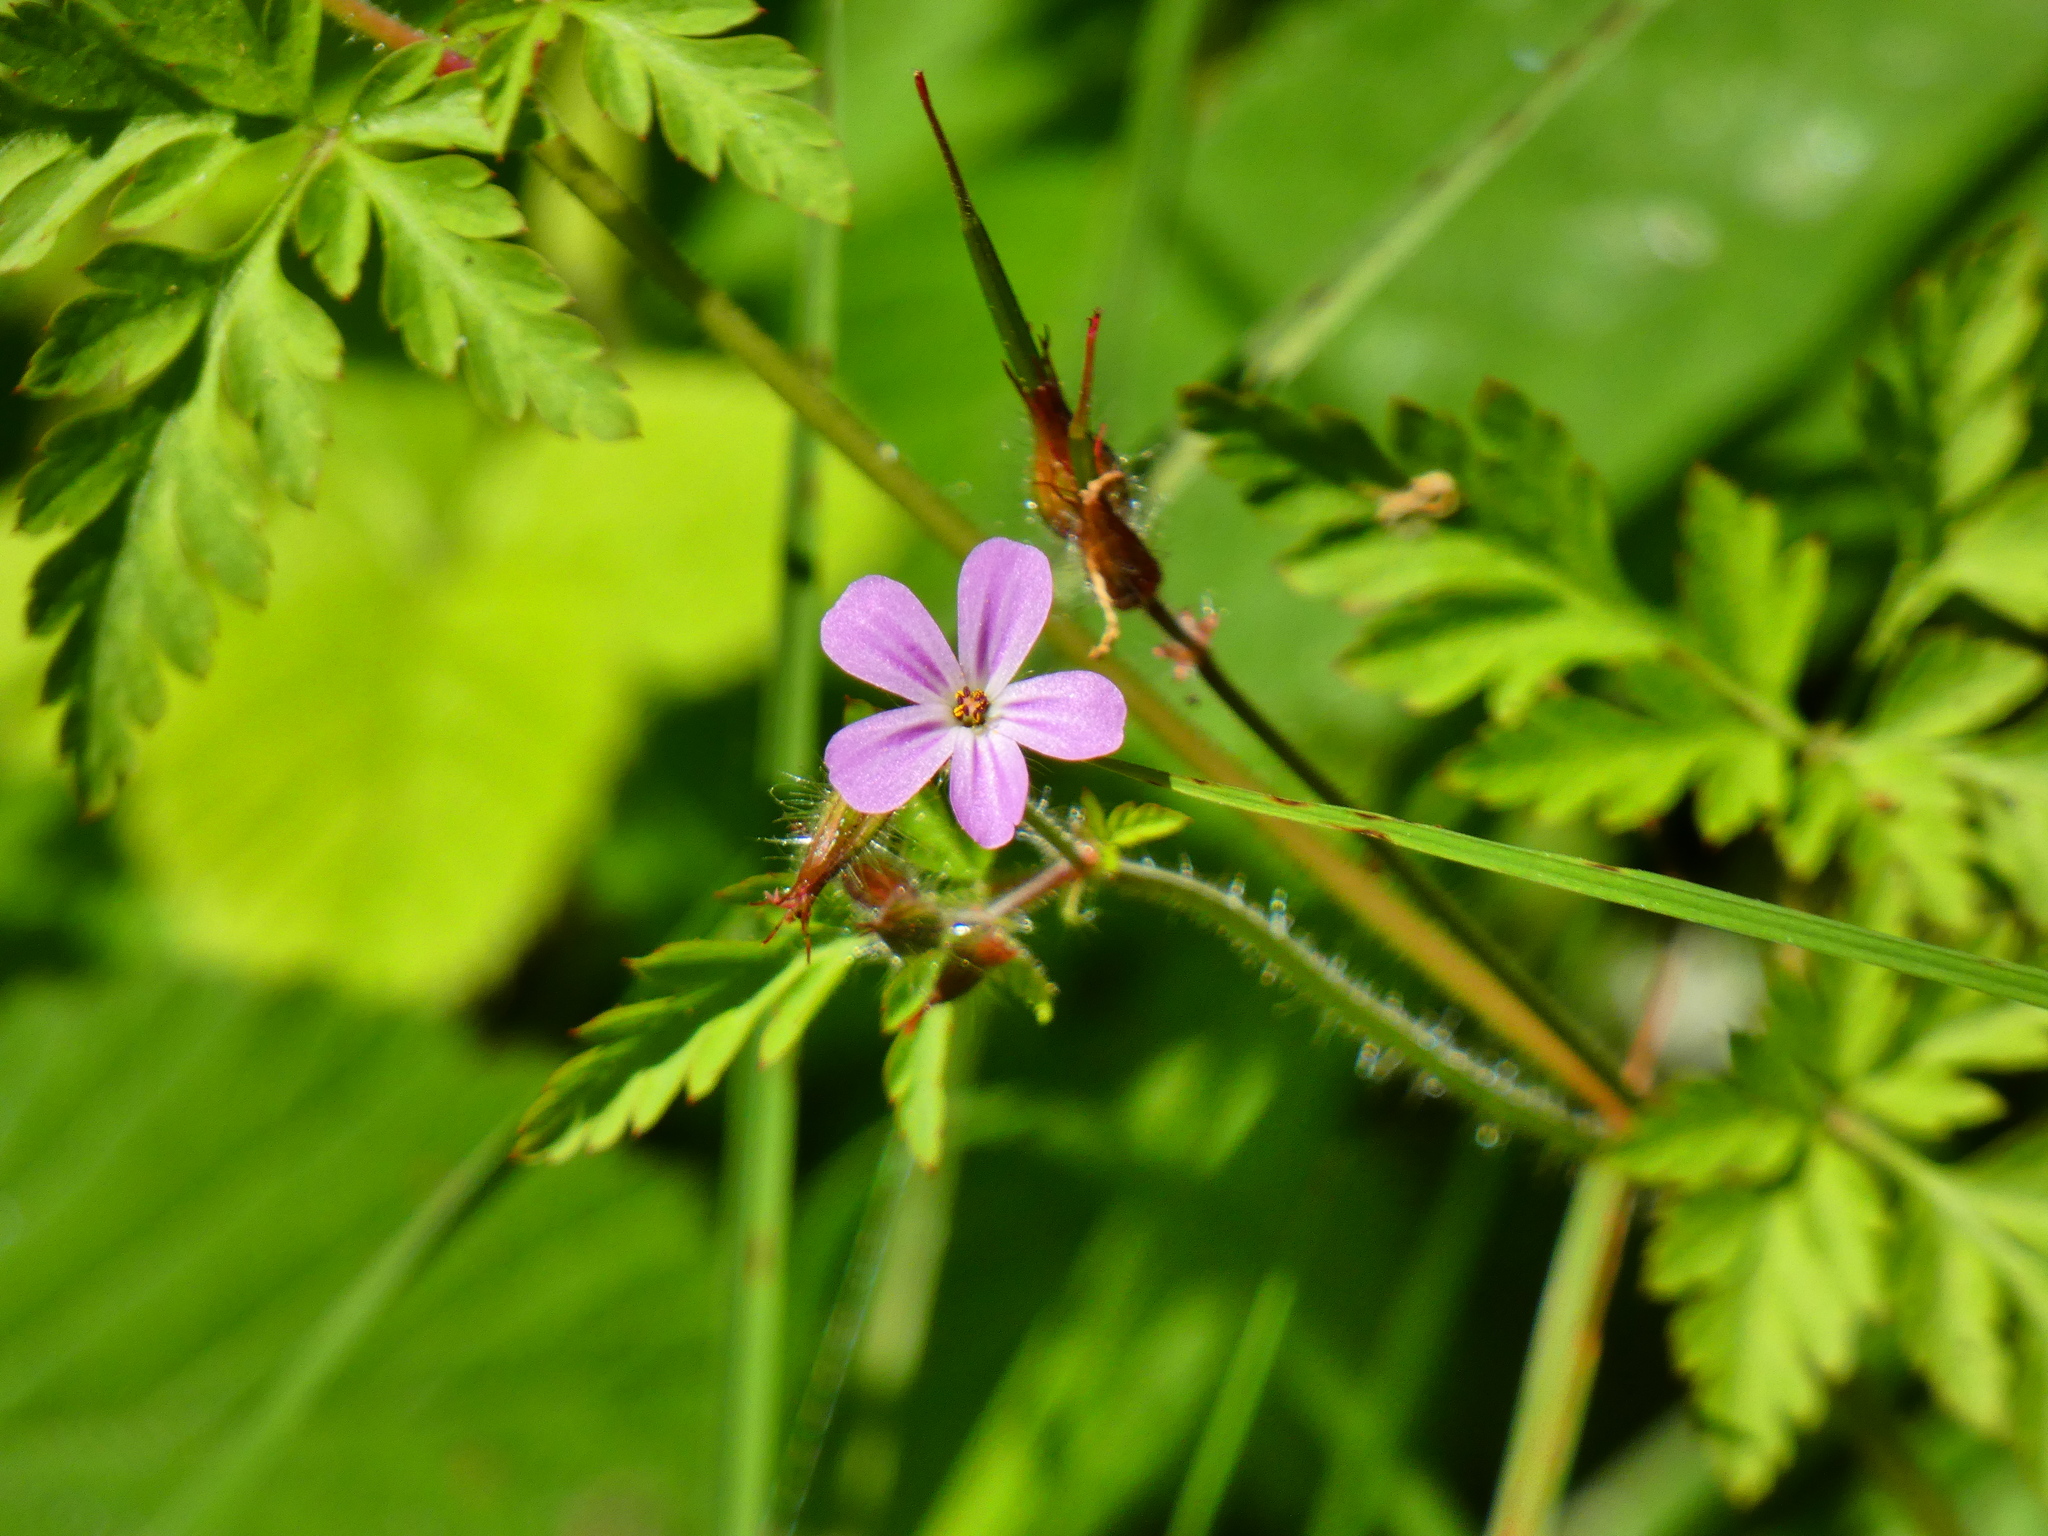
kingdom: Plantae
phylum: Tracheophyta
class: Magnoliopsida
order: Geraniales
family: Geraniaceae
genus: Geranium
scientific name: Geranium robertianum
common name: Herb-robert
